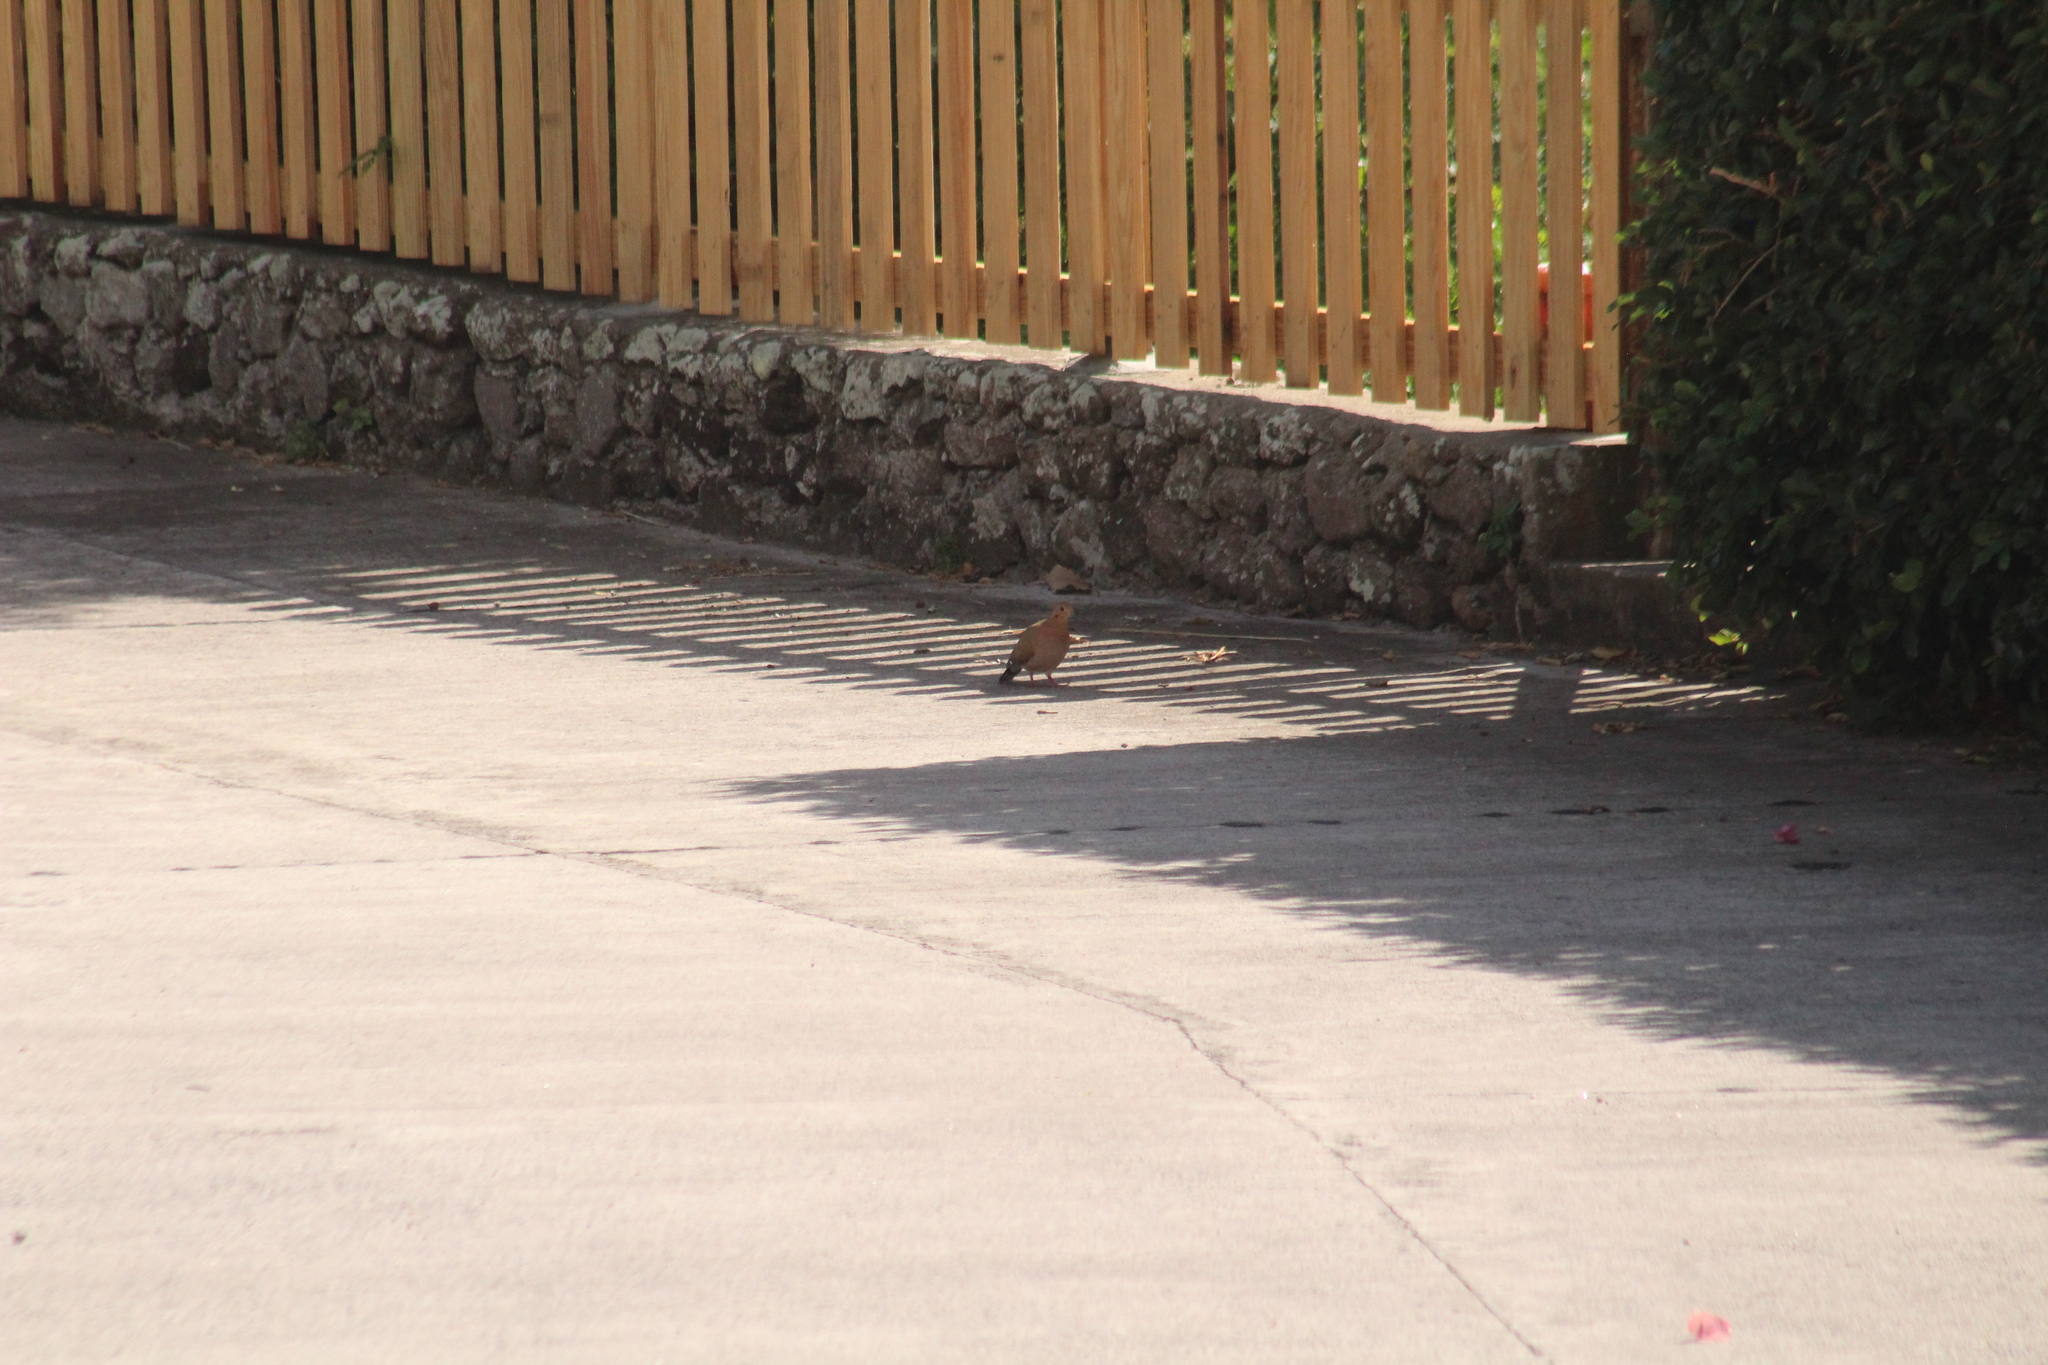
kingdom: Animalia
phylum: Chordata
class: Aves
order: Columbiformes
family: Columbidae
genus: Zenaida
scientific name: Zenaida aurita
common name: Zenaida dove
